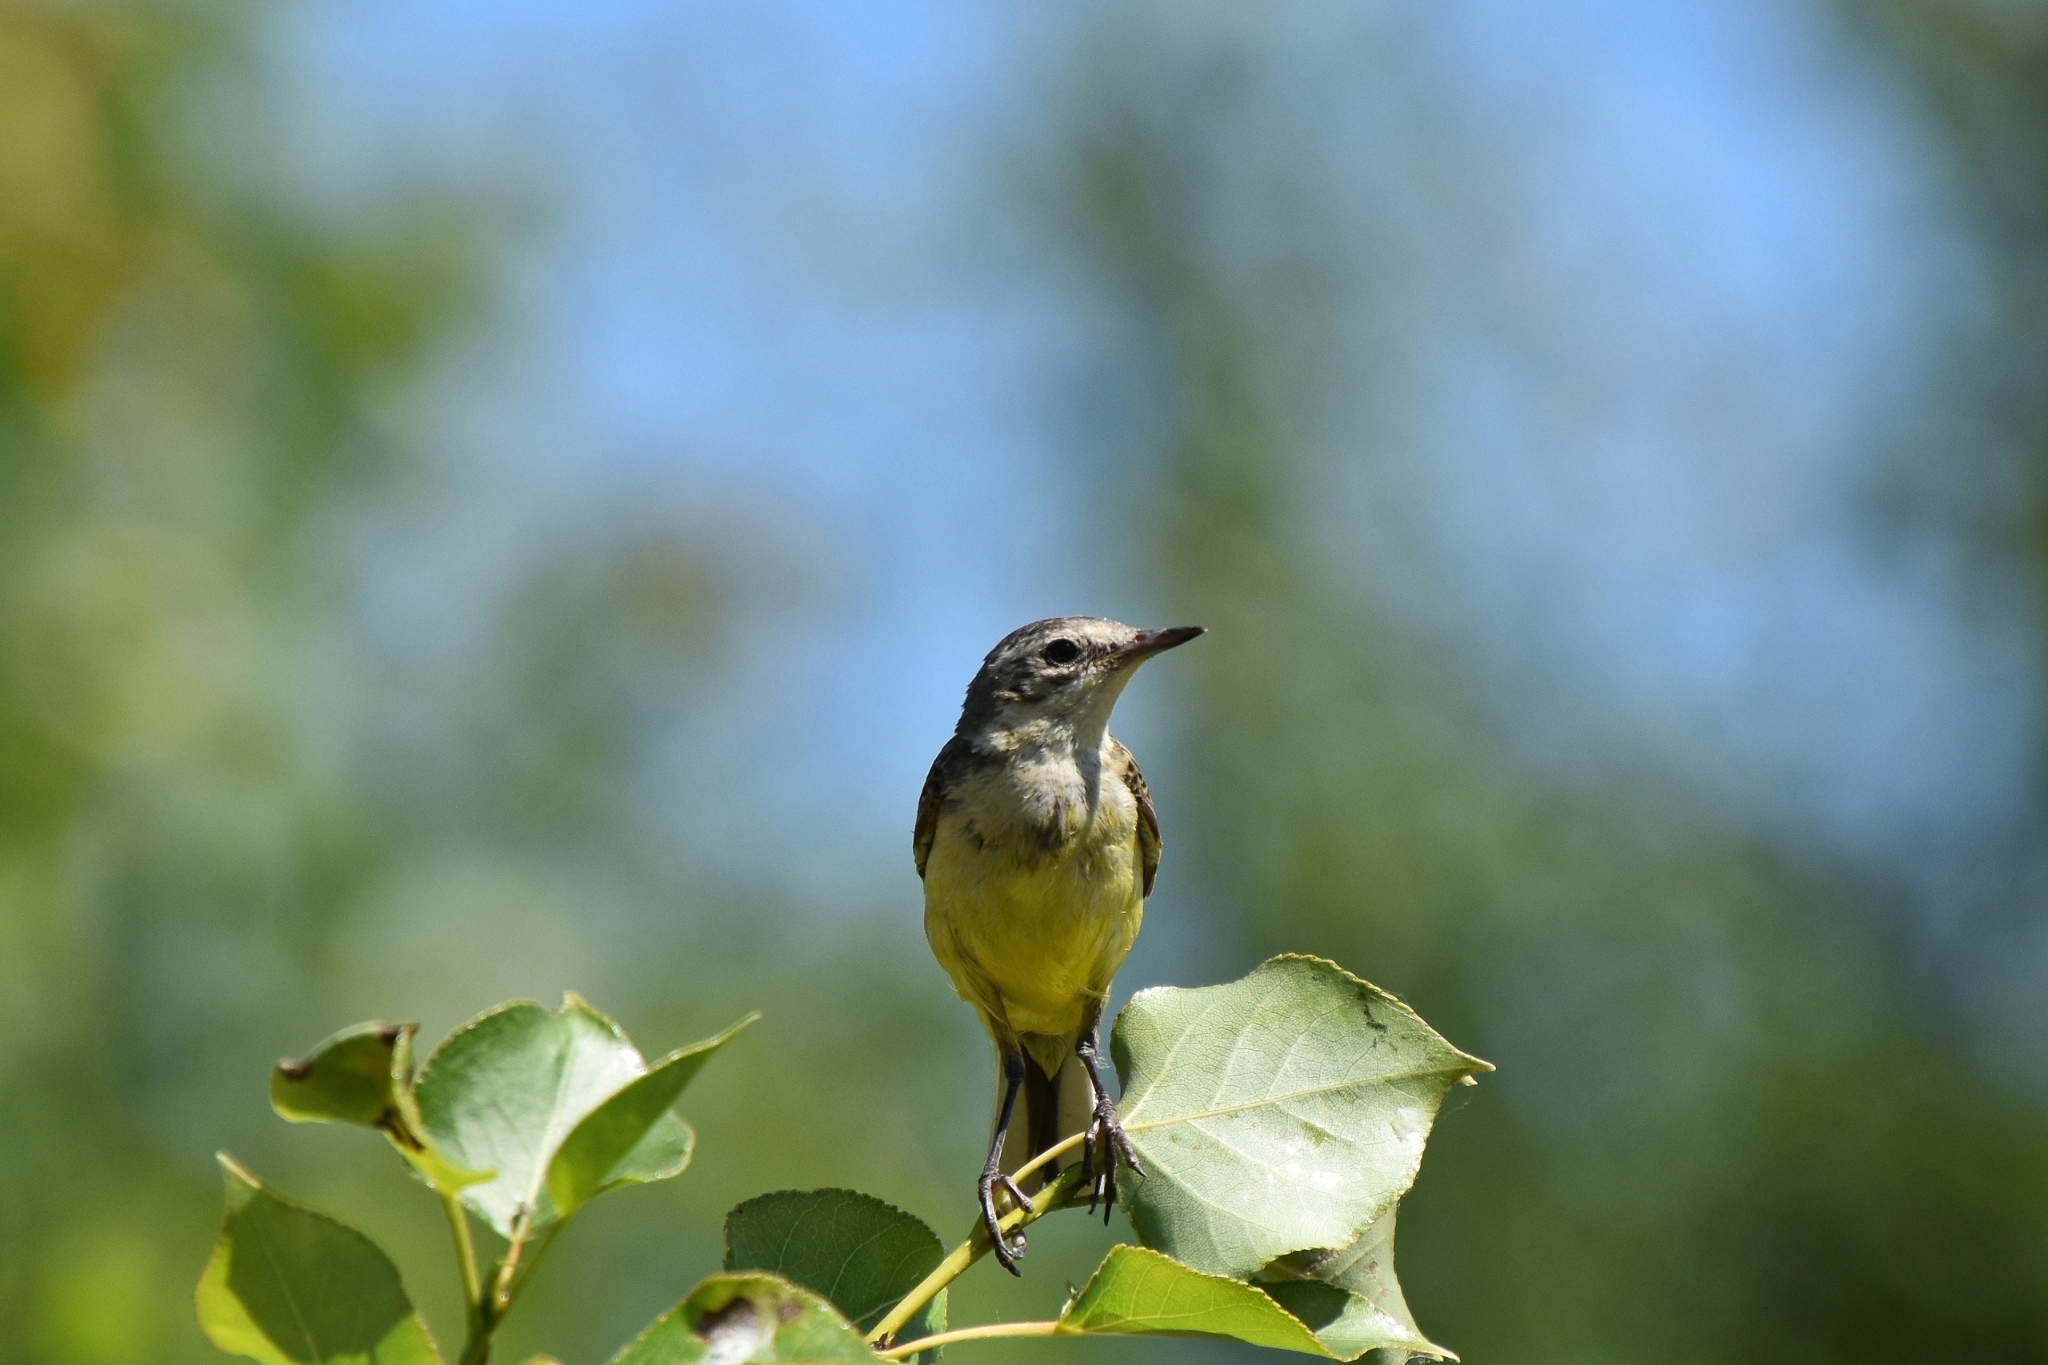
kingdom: Animalia
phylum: Chordata
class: Aves
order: Passeriformes
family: Motacillidae
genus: Motacilla
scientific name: Motacilla flava
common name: Western yellow wagtail
